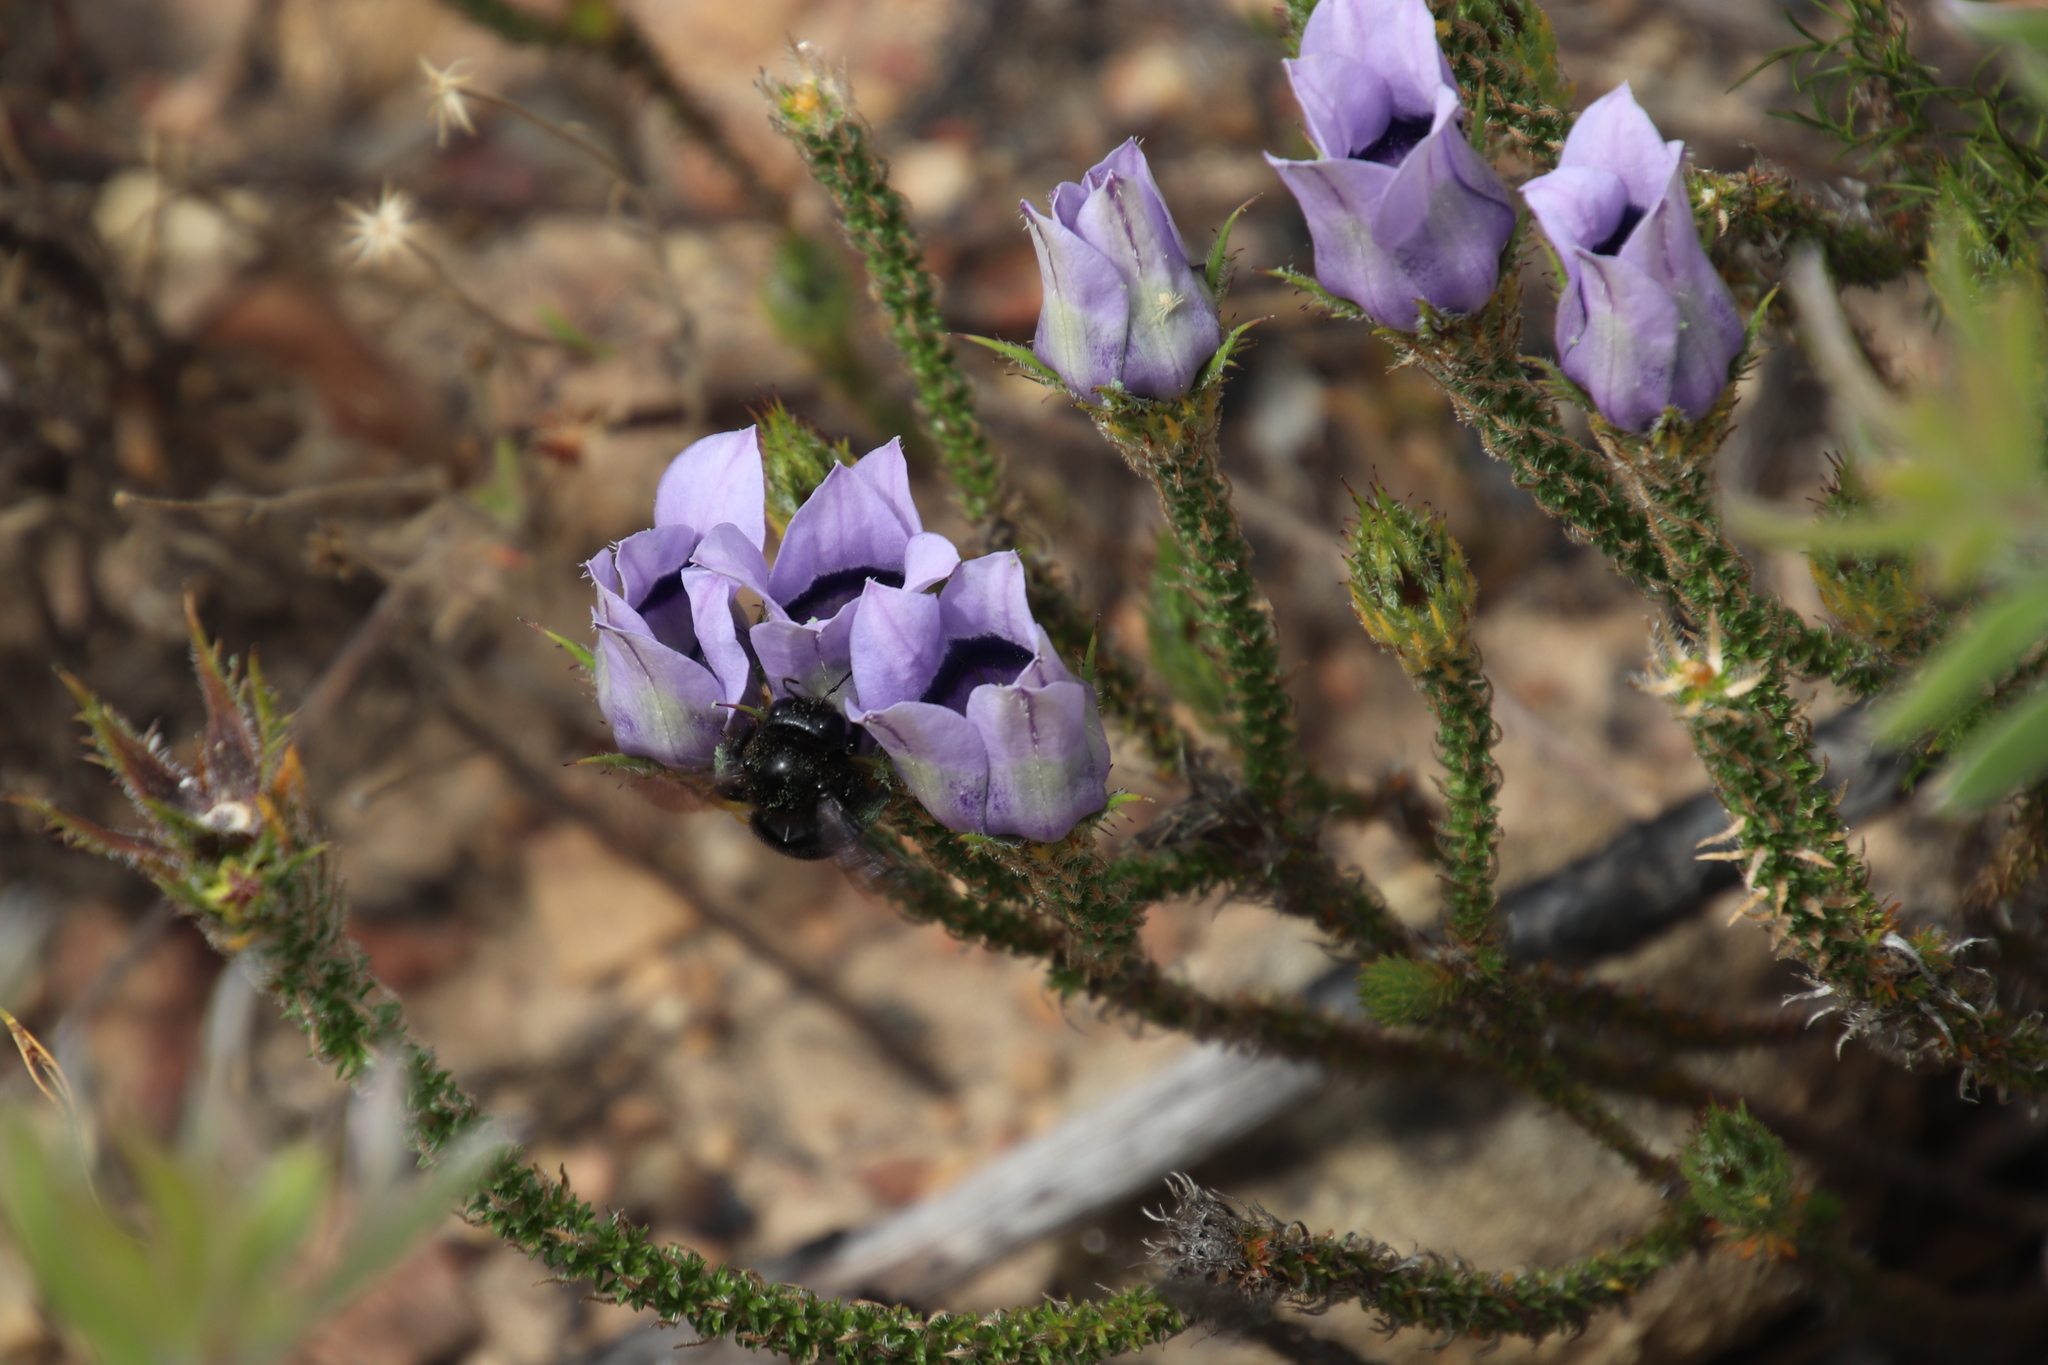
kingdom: Plantae
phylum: Tracheophyta
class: Magnoliopsida
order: Asterales
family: Campanulaceae
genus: Roella
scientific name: Roella ciliata
